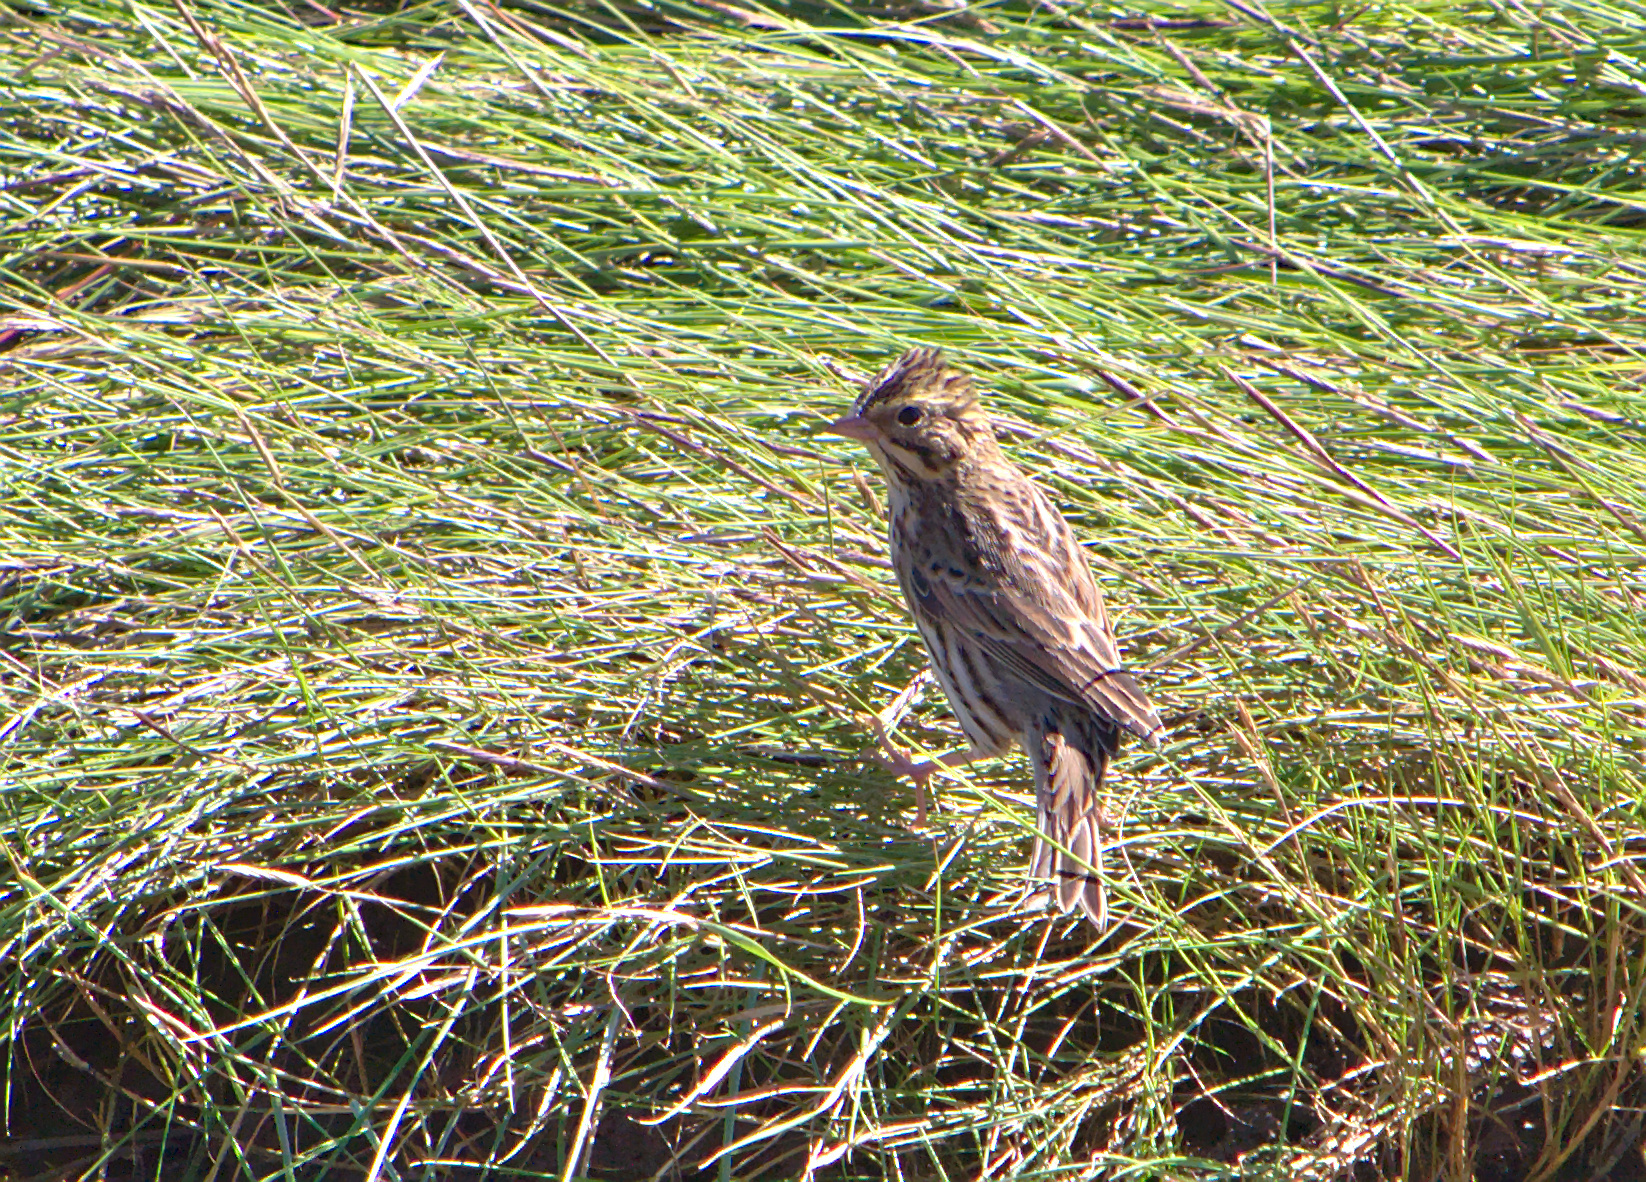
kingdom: Animalia
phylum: Chordata
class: Aves
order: Passeriformes
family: Passerellidae
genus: Passerculus
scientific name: Passerculus sandwichensis
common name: Savannah sparrow
